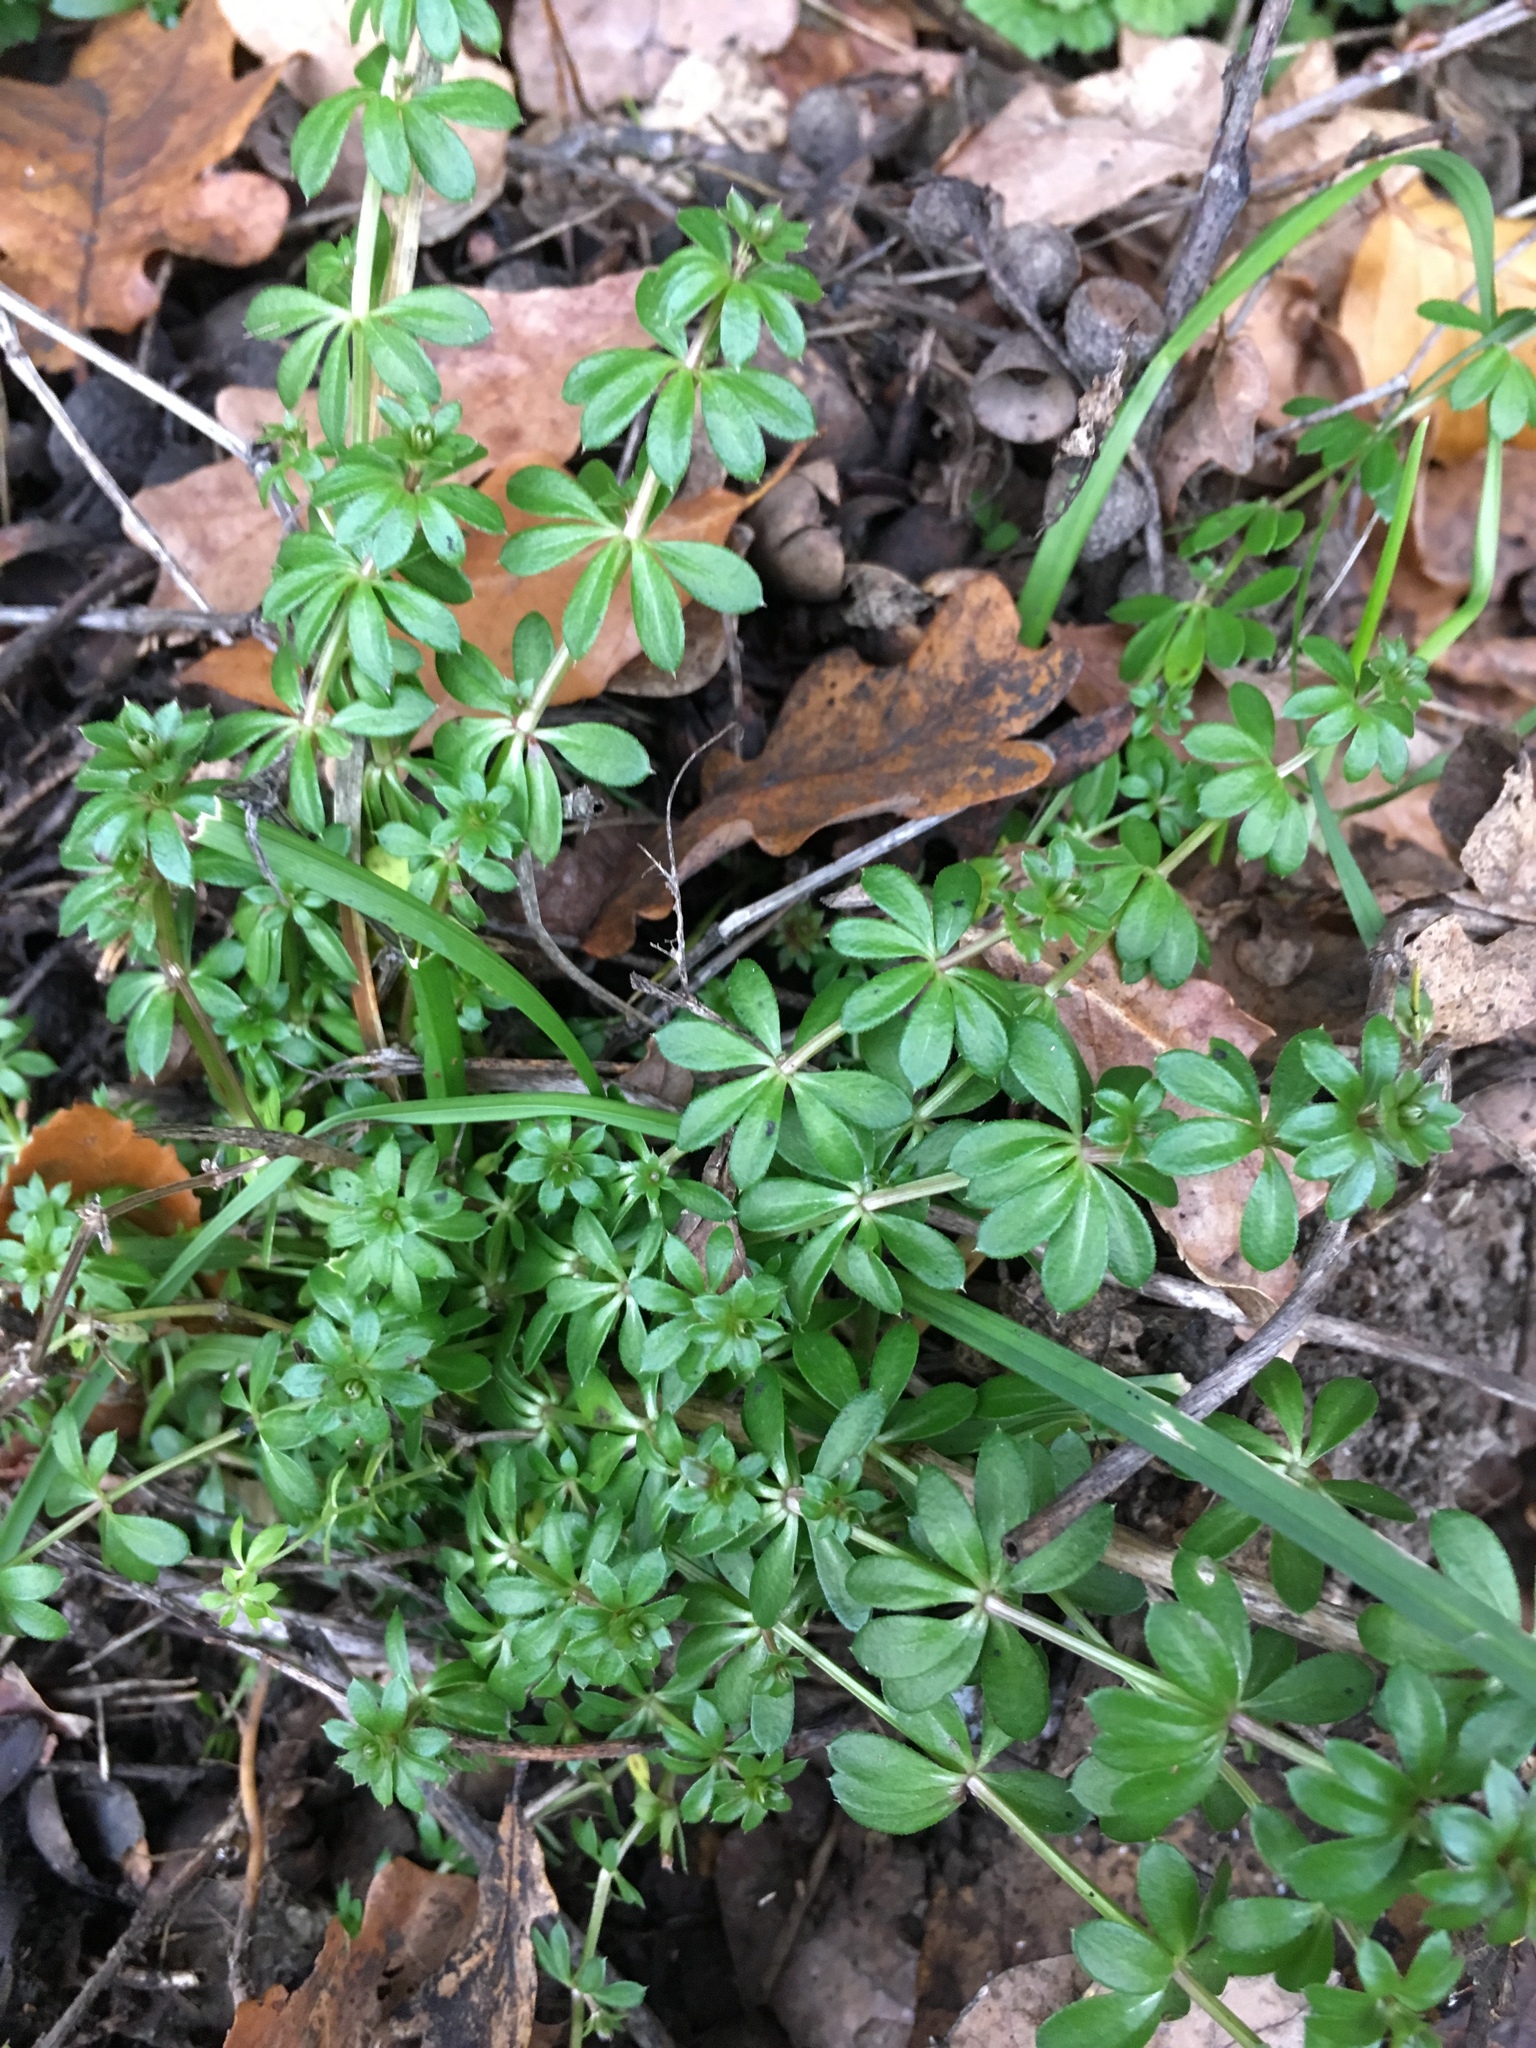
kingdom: Plantae
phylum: Tracheophyta
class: Magnoliopsida
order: Gentianales
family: Rubiaceae
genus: Galium
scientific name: Galium aparine
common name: Cleavers
